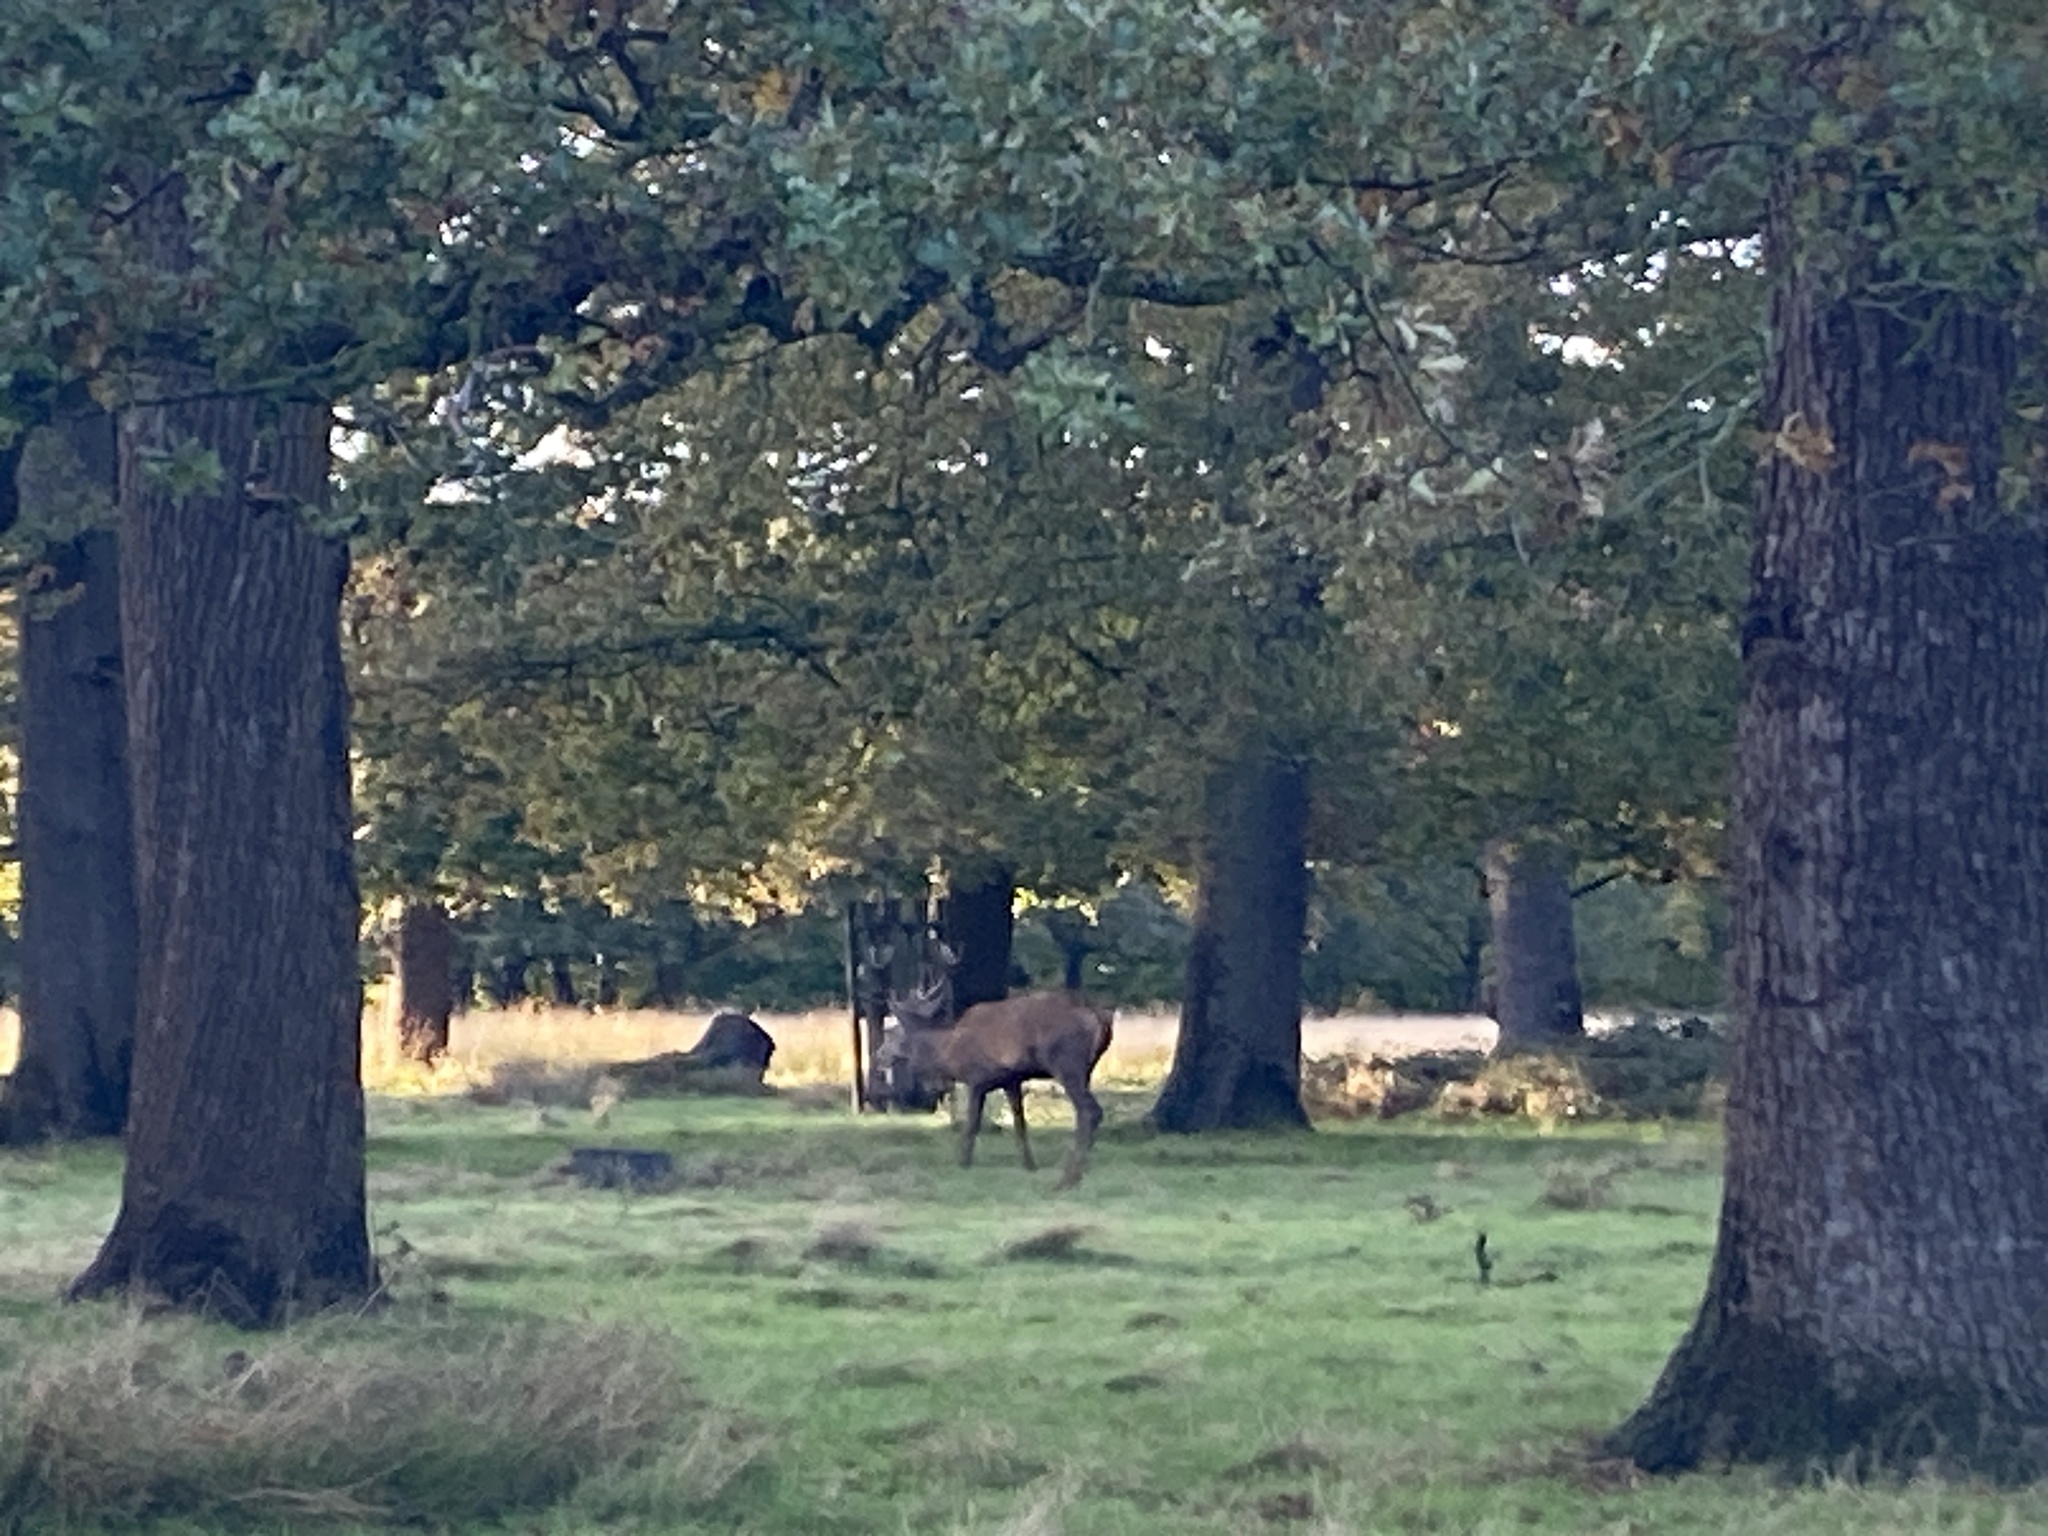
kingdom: Animalia
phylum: Chordata
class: Mammalia
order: Artiodactyla
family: Cervidae
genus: Cervus
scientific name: Cervus elaphus
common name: Red deer
